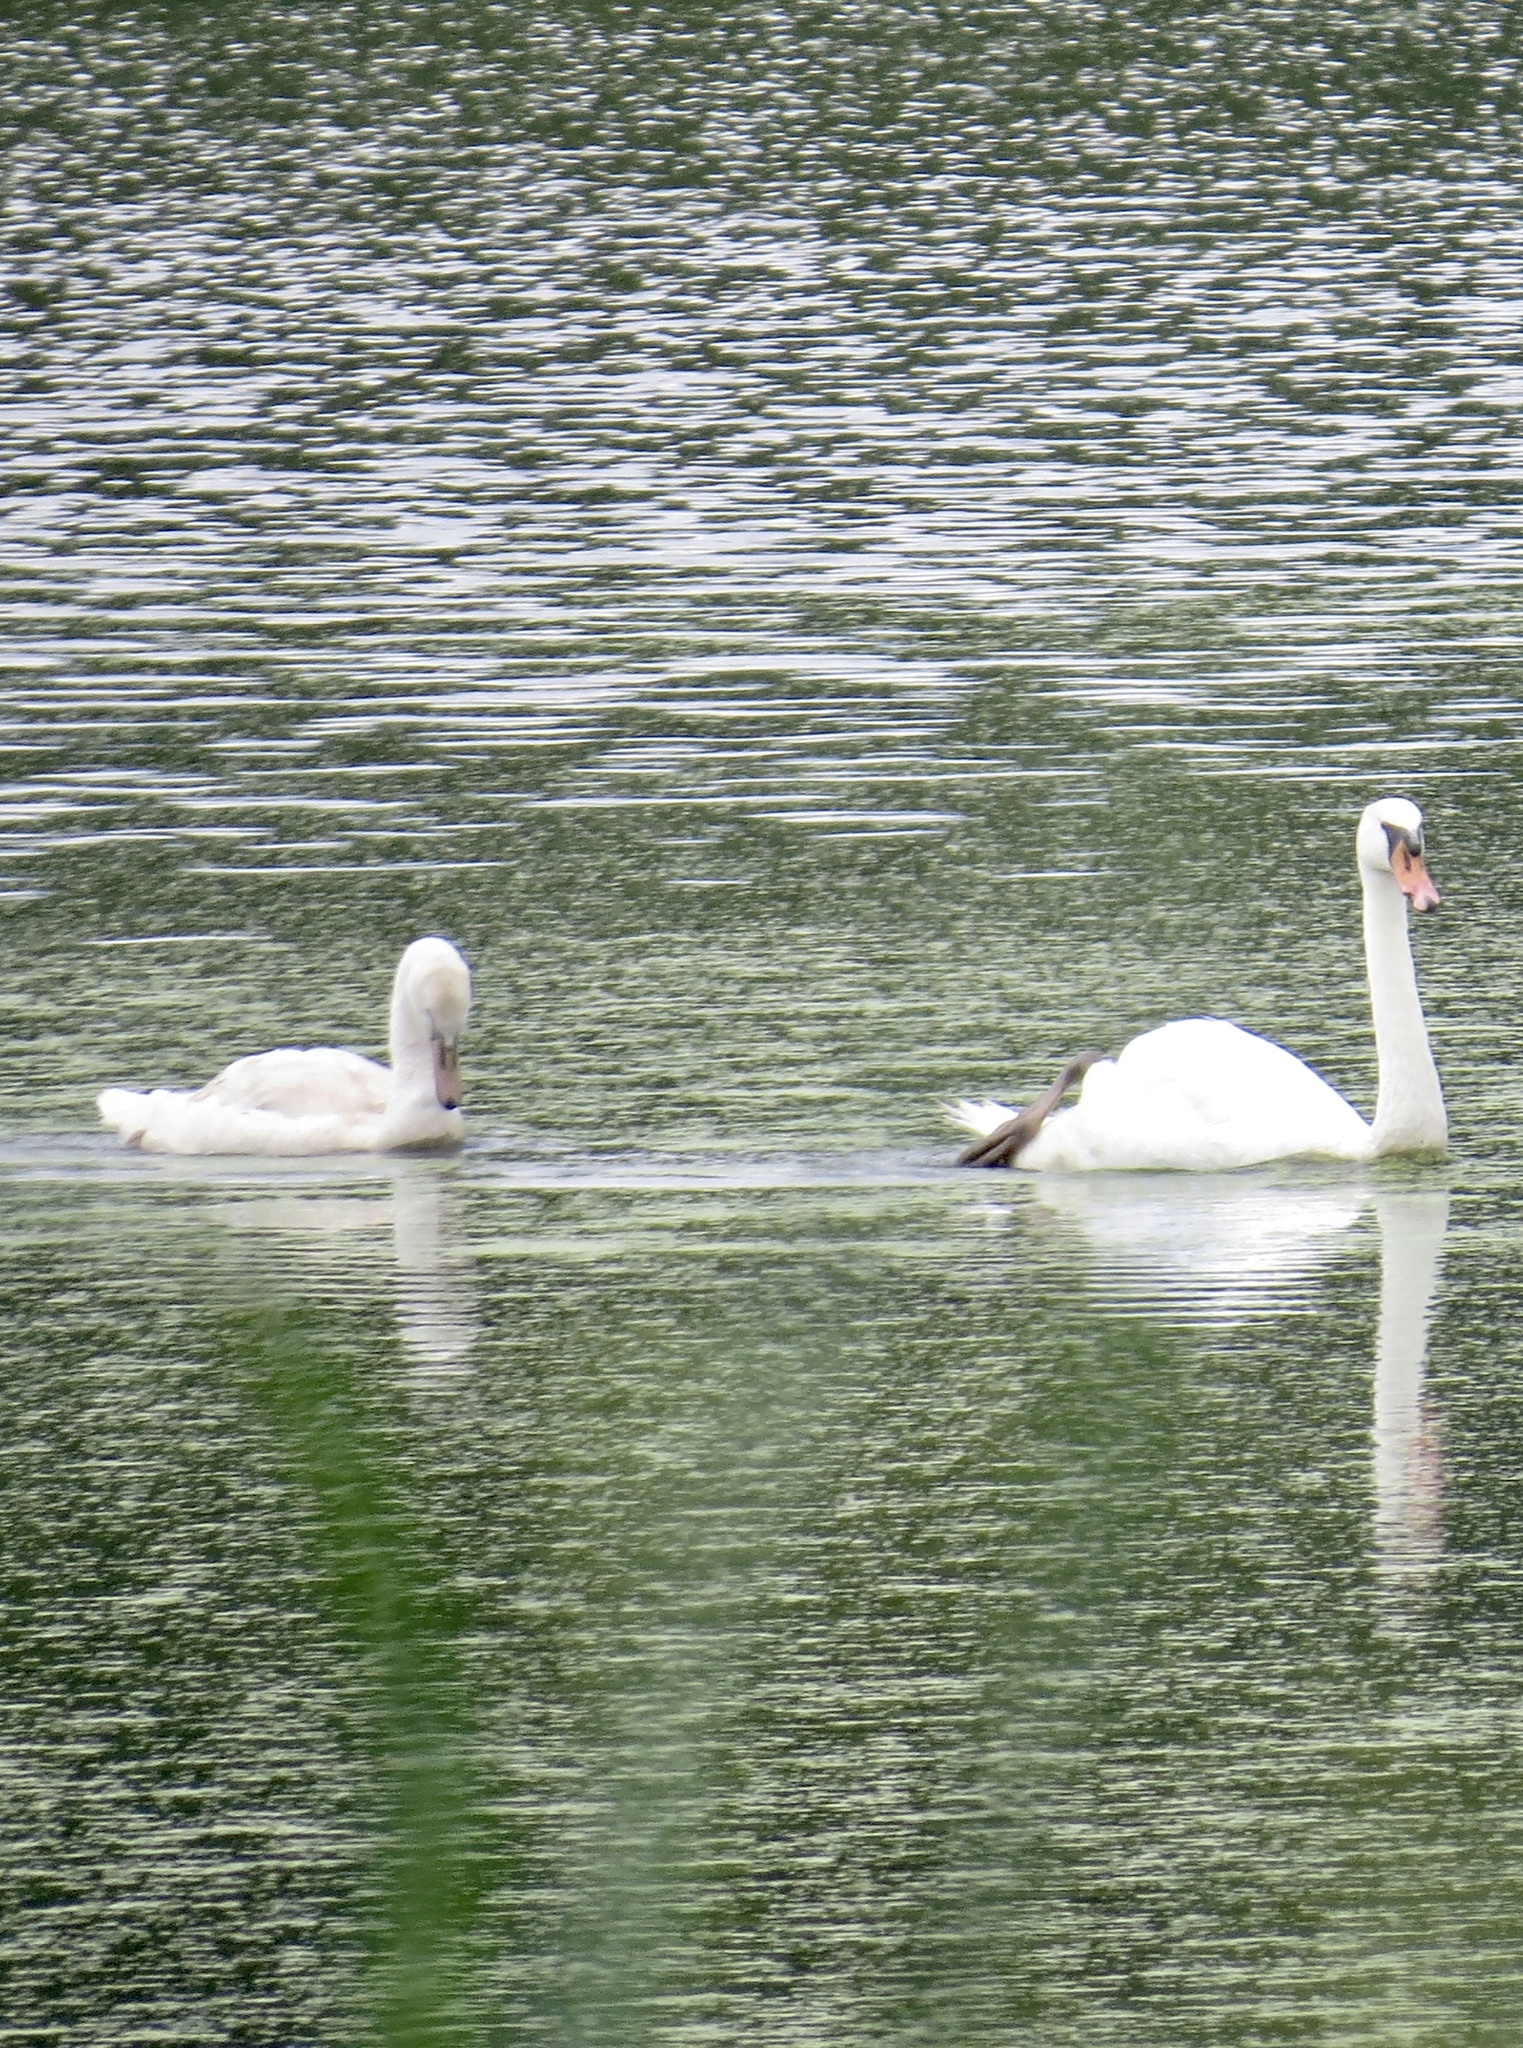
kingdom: Animalia
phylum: Chordata
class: Aves
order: Anseriformes
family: Anatidae
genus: Cygnus
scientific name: Cygnus olor
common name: Mute swan
